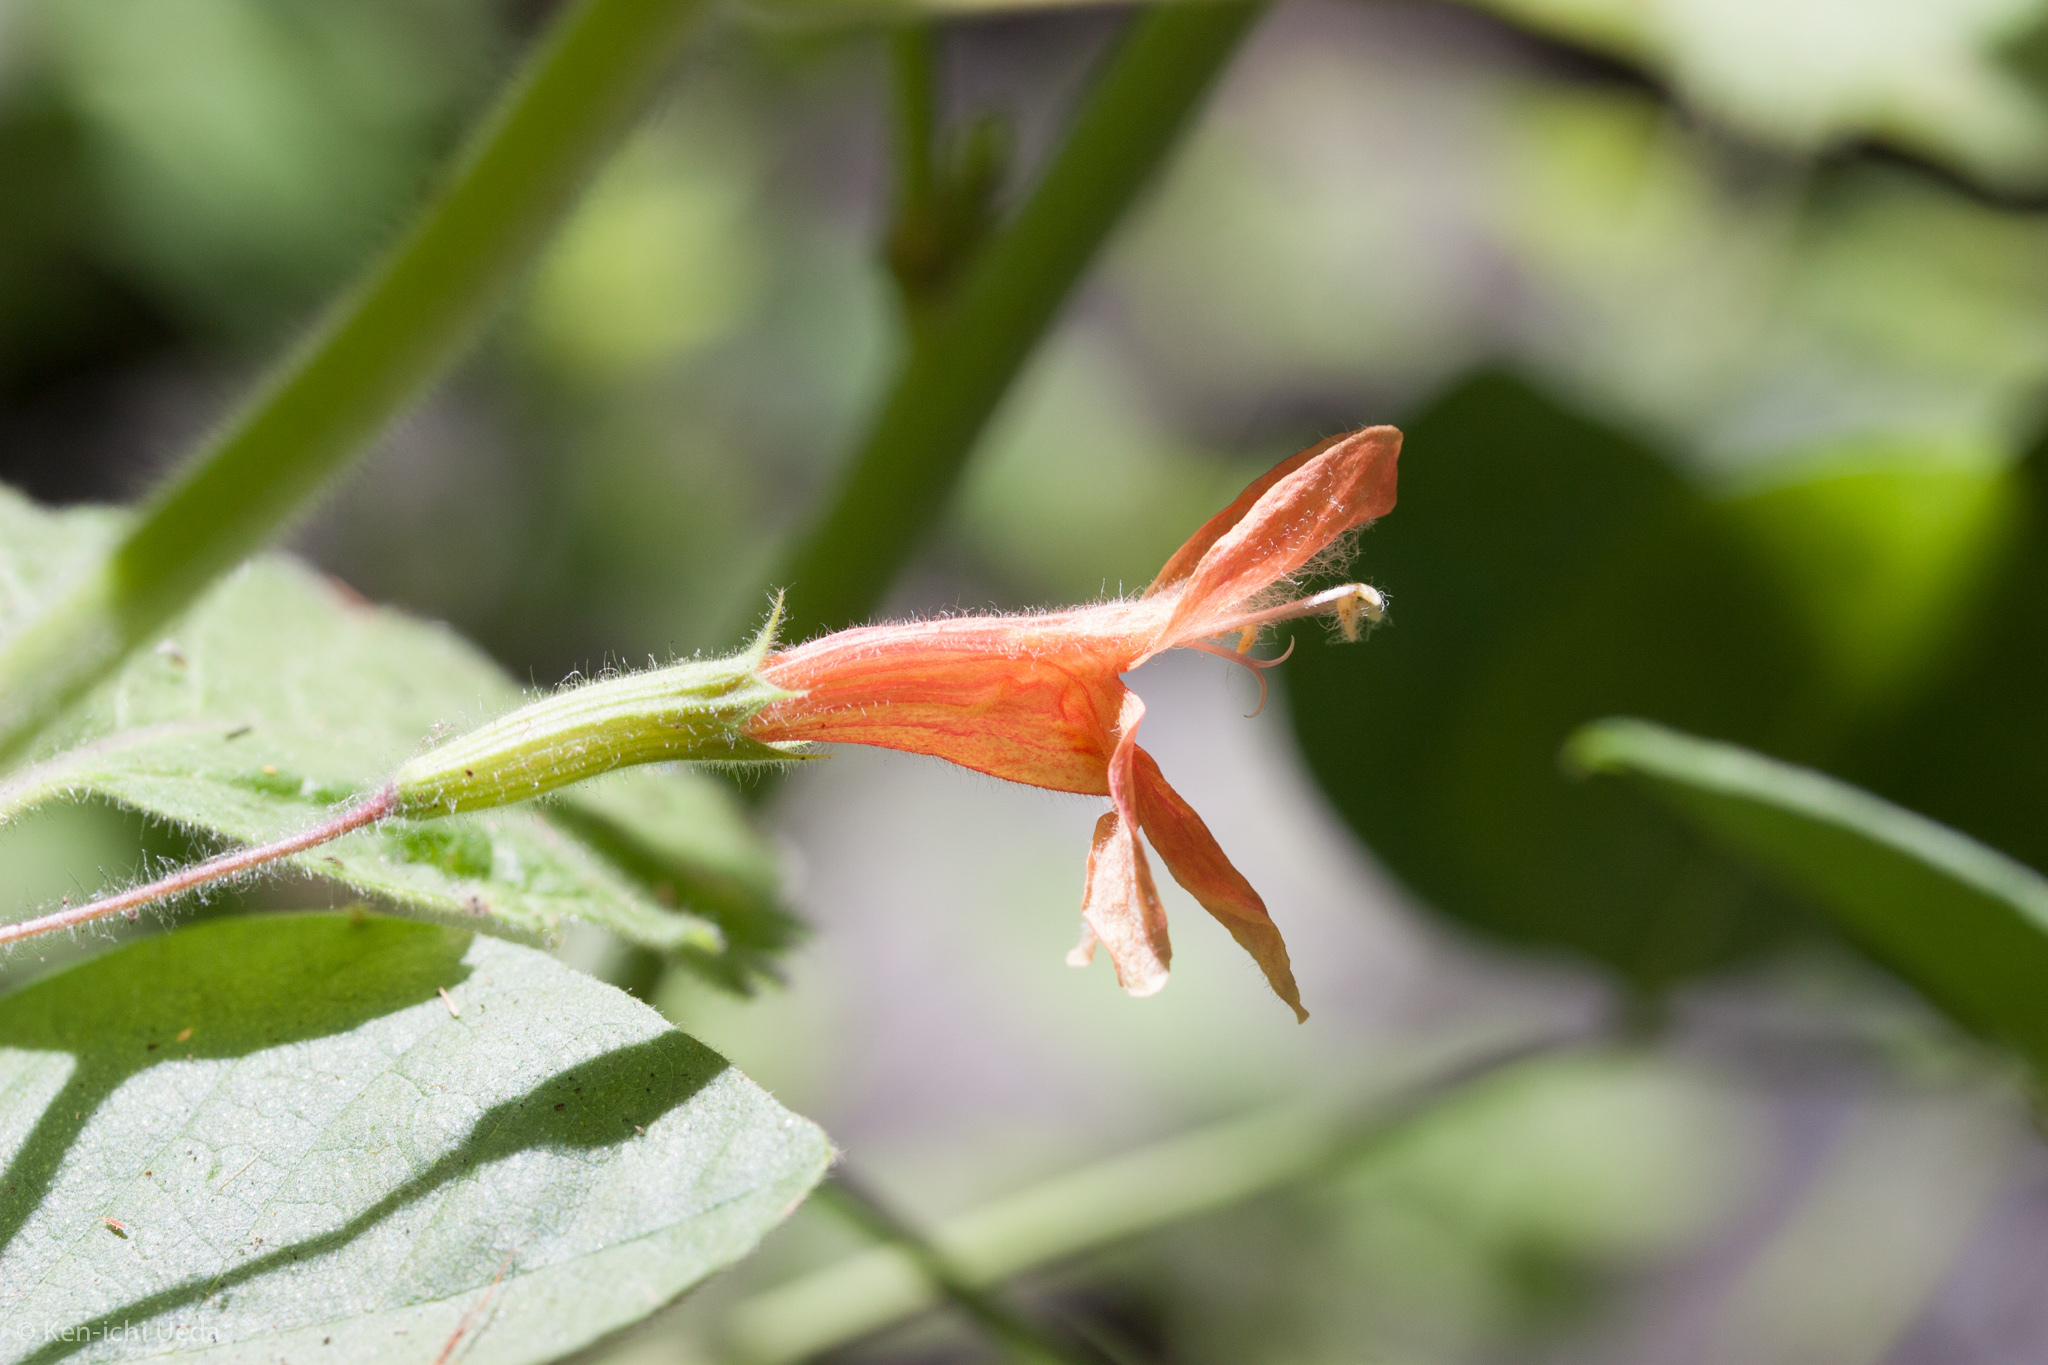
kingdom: Plantae
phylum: Tracheophyta
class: Magnoliopsida
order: Lamiales
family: Lamiaceae
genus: Clinopodium
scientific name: Clinopodium mimuloides
